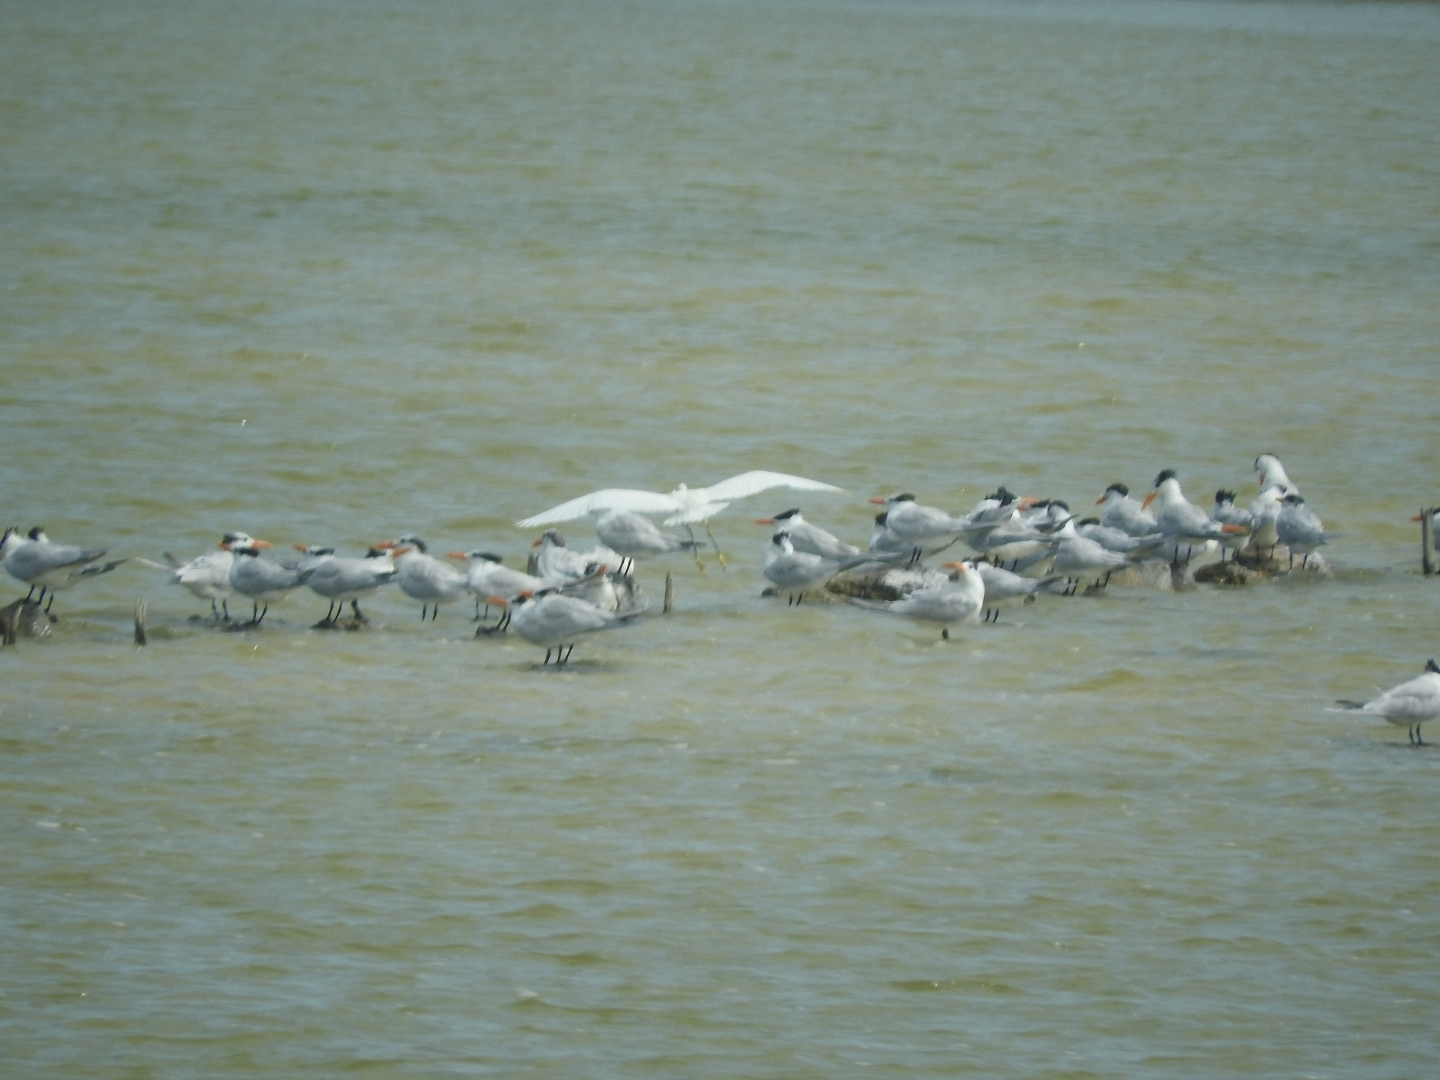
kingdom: Animalia
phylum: Chordata
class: Aves
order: Pelecaniformes
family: Ardeidae
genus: Egretta
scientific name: Egretta thula
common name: Snowy egret
